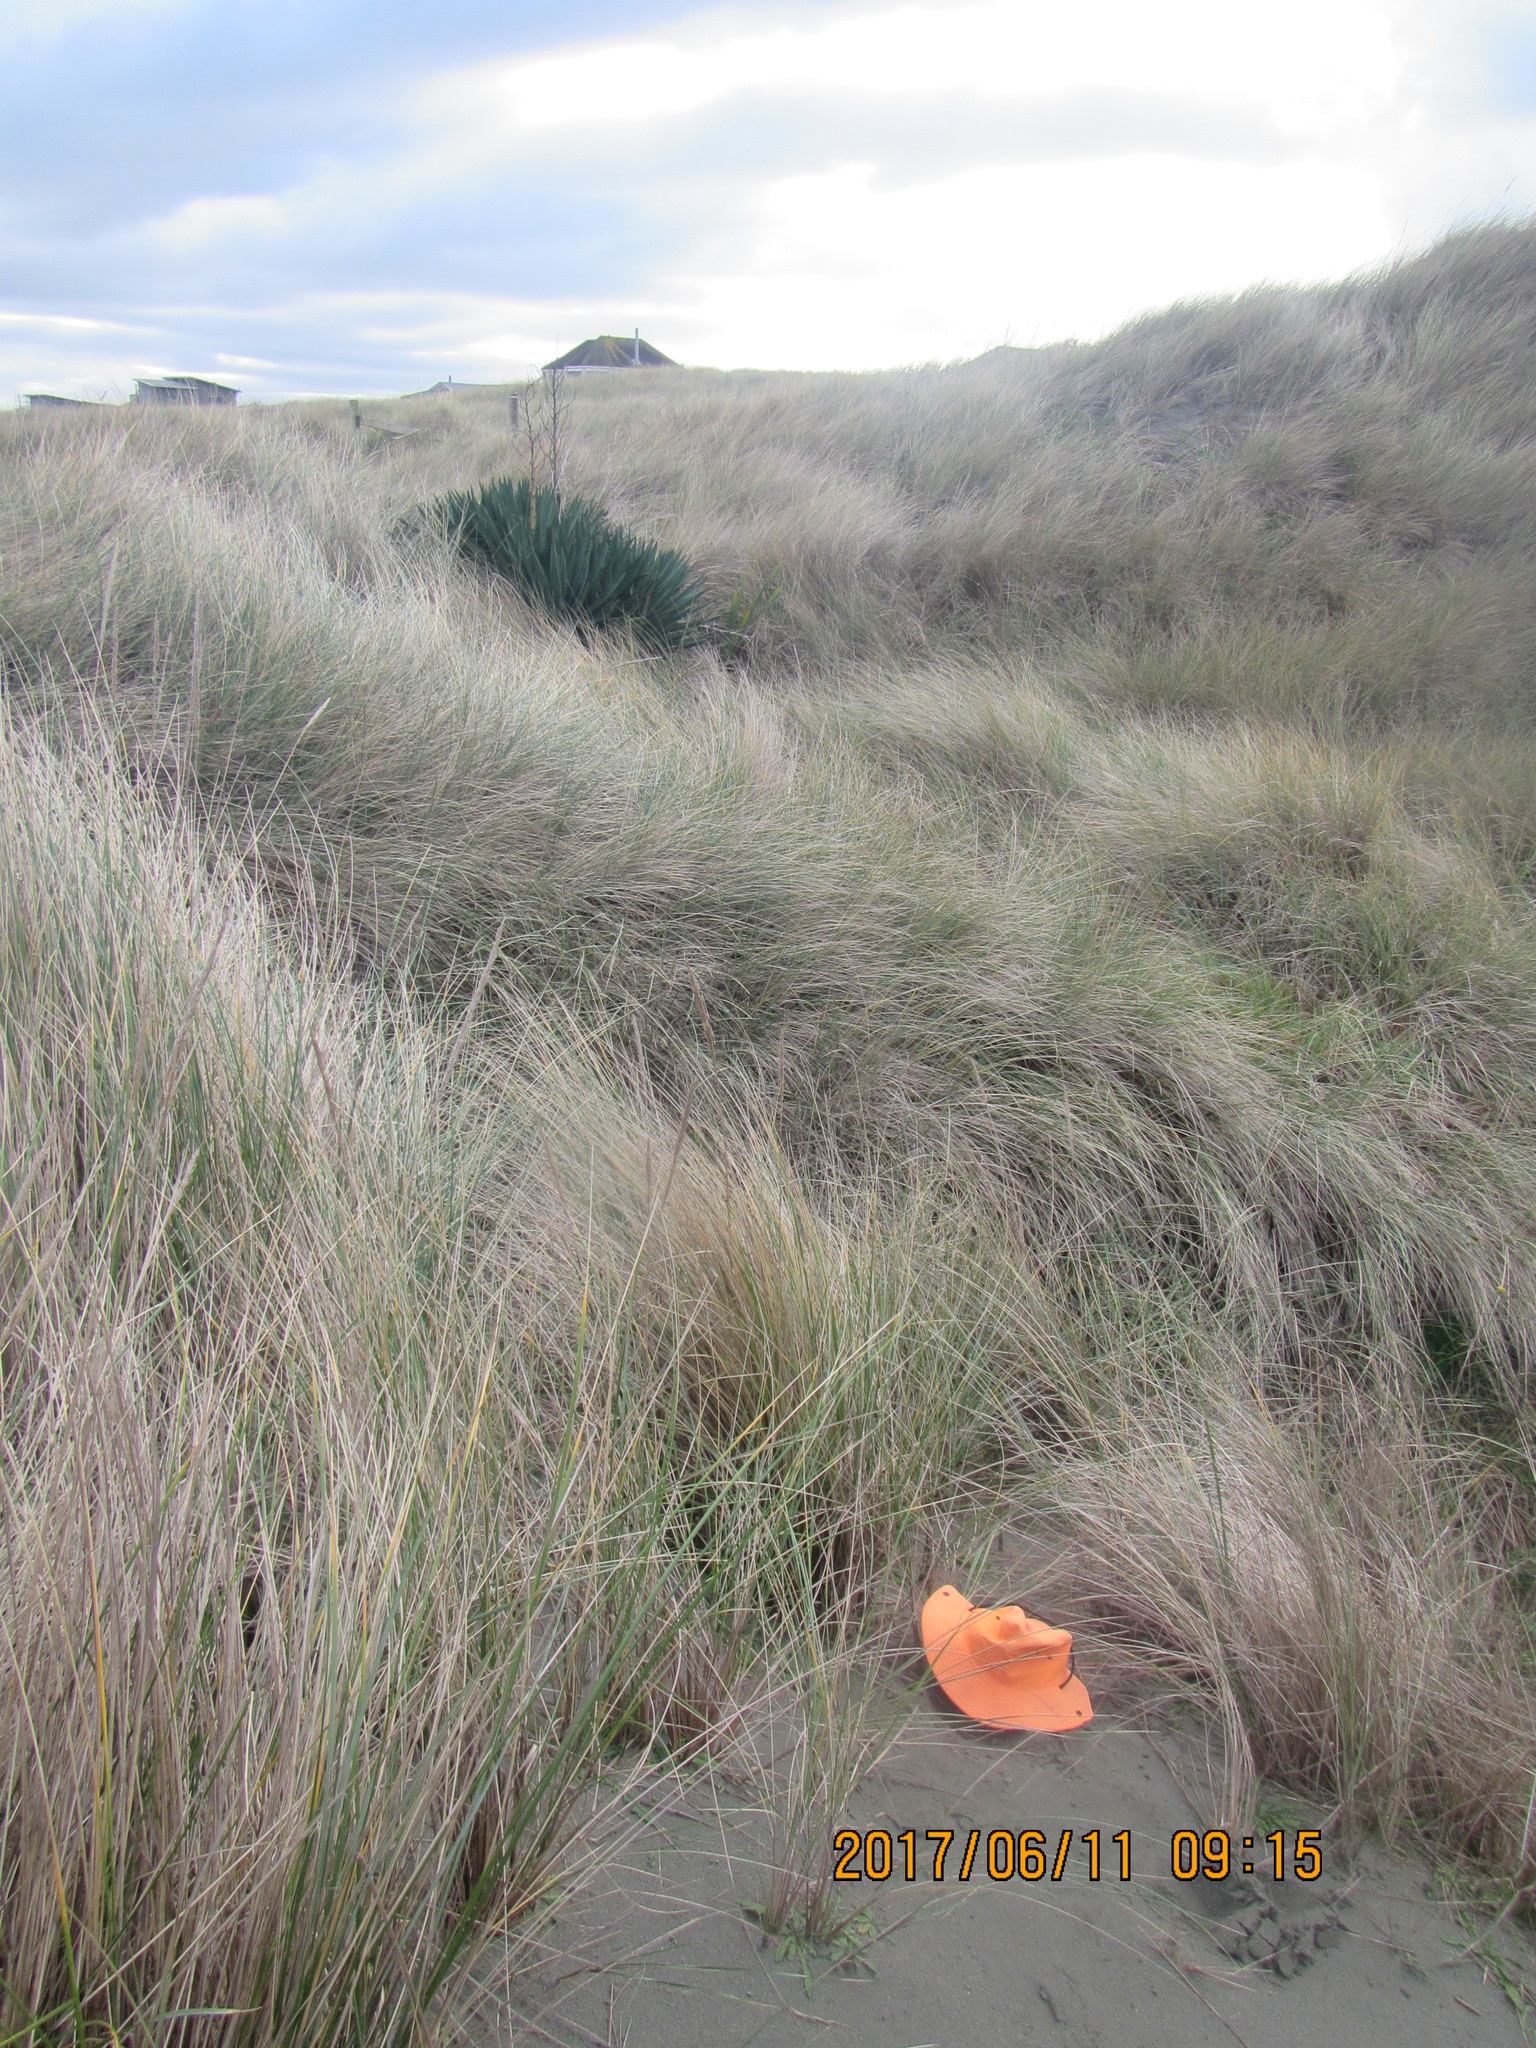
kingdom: Animalia
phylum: Arthropoda
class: Arachnida
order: Araneae
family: Oxyopidae
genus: Oxyopes
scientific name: Oxyopes gracilipes
